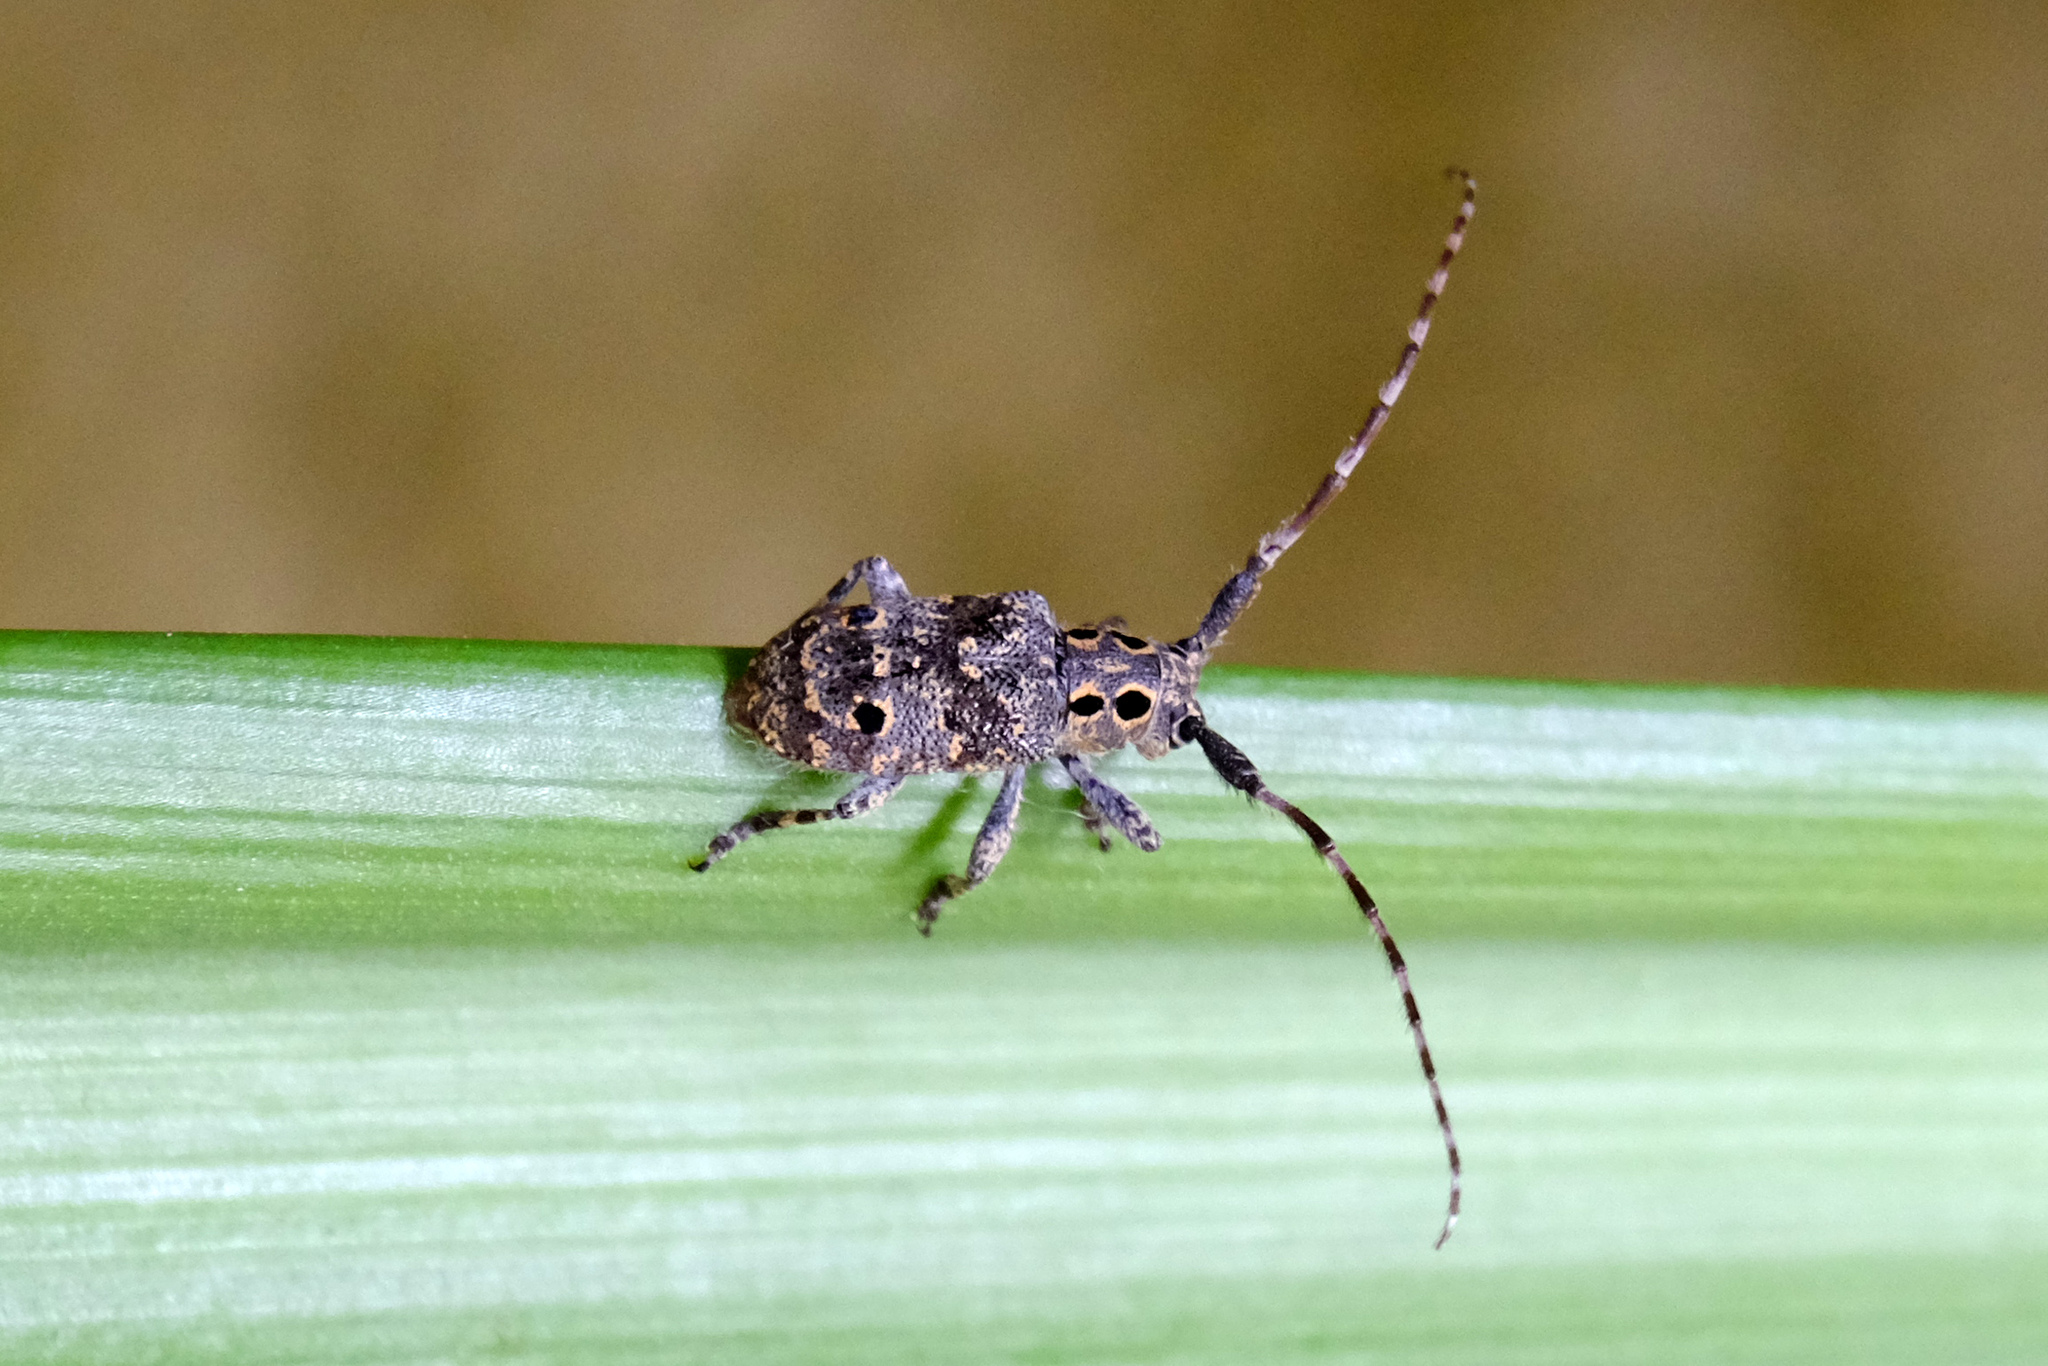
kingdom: Animalia
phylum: Arthropoda
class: Insecta
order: Coleoptera
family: Cerambycidae
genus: Mesosa
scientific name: Mesosa curculionoides
